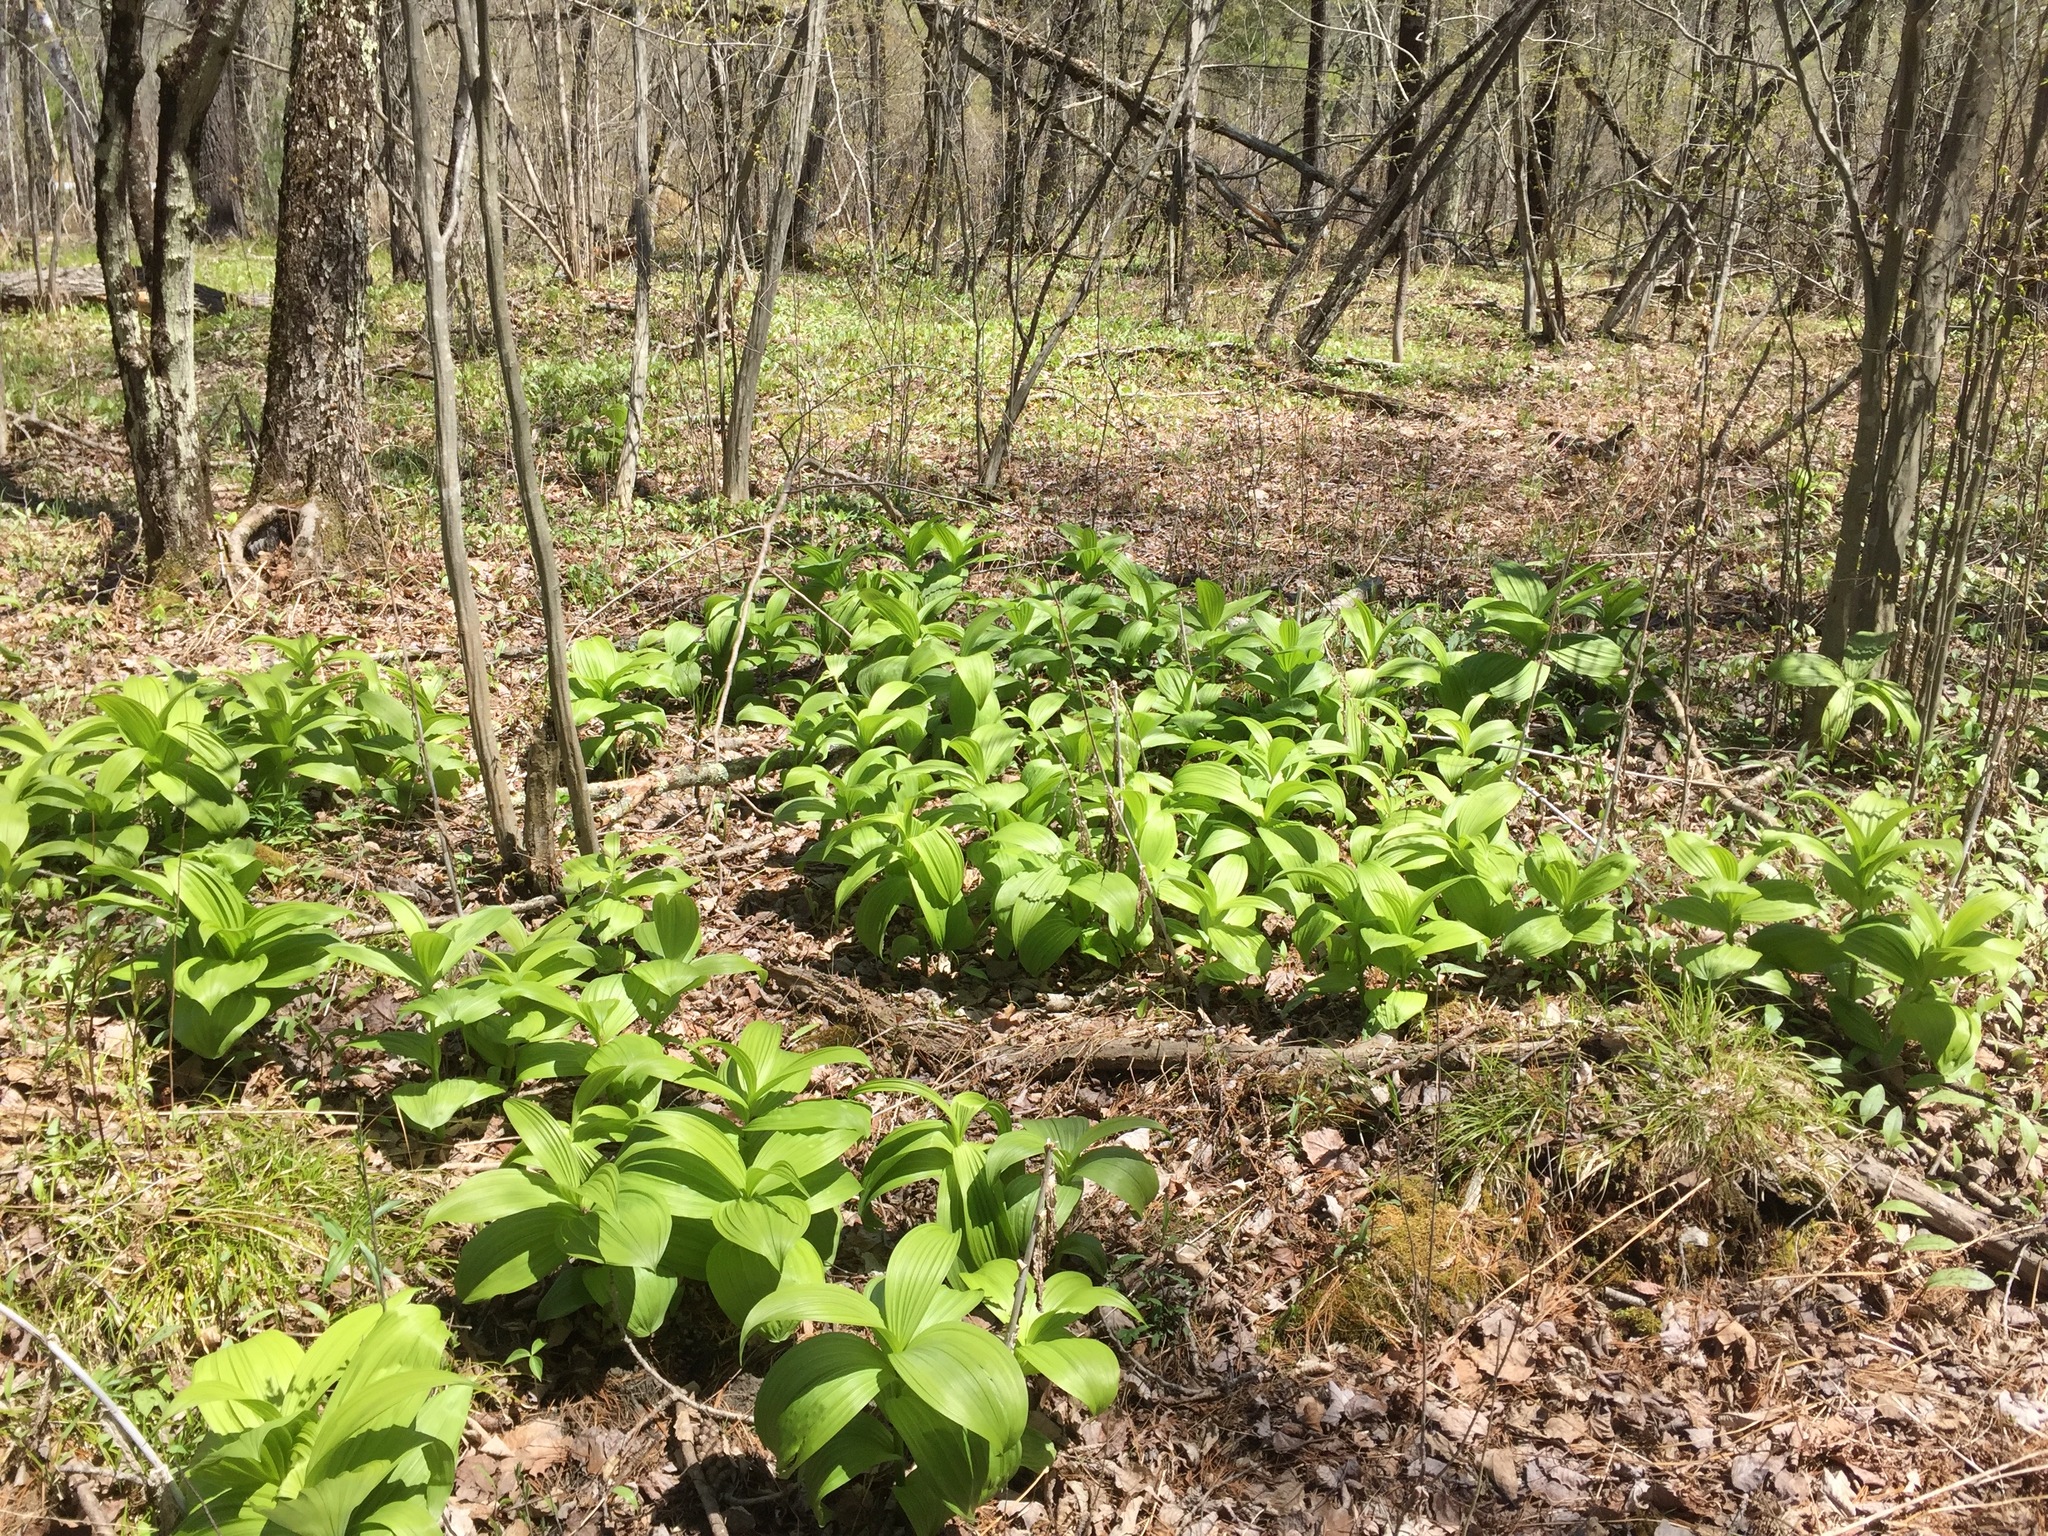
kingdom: Plantae
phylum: Tracheophyta
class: Liliopsida
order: Liliales
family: Melanthiaceae
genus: Veratrum
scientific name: Veratrum viride
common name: American false hellebore
